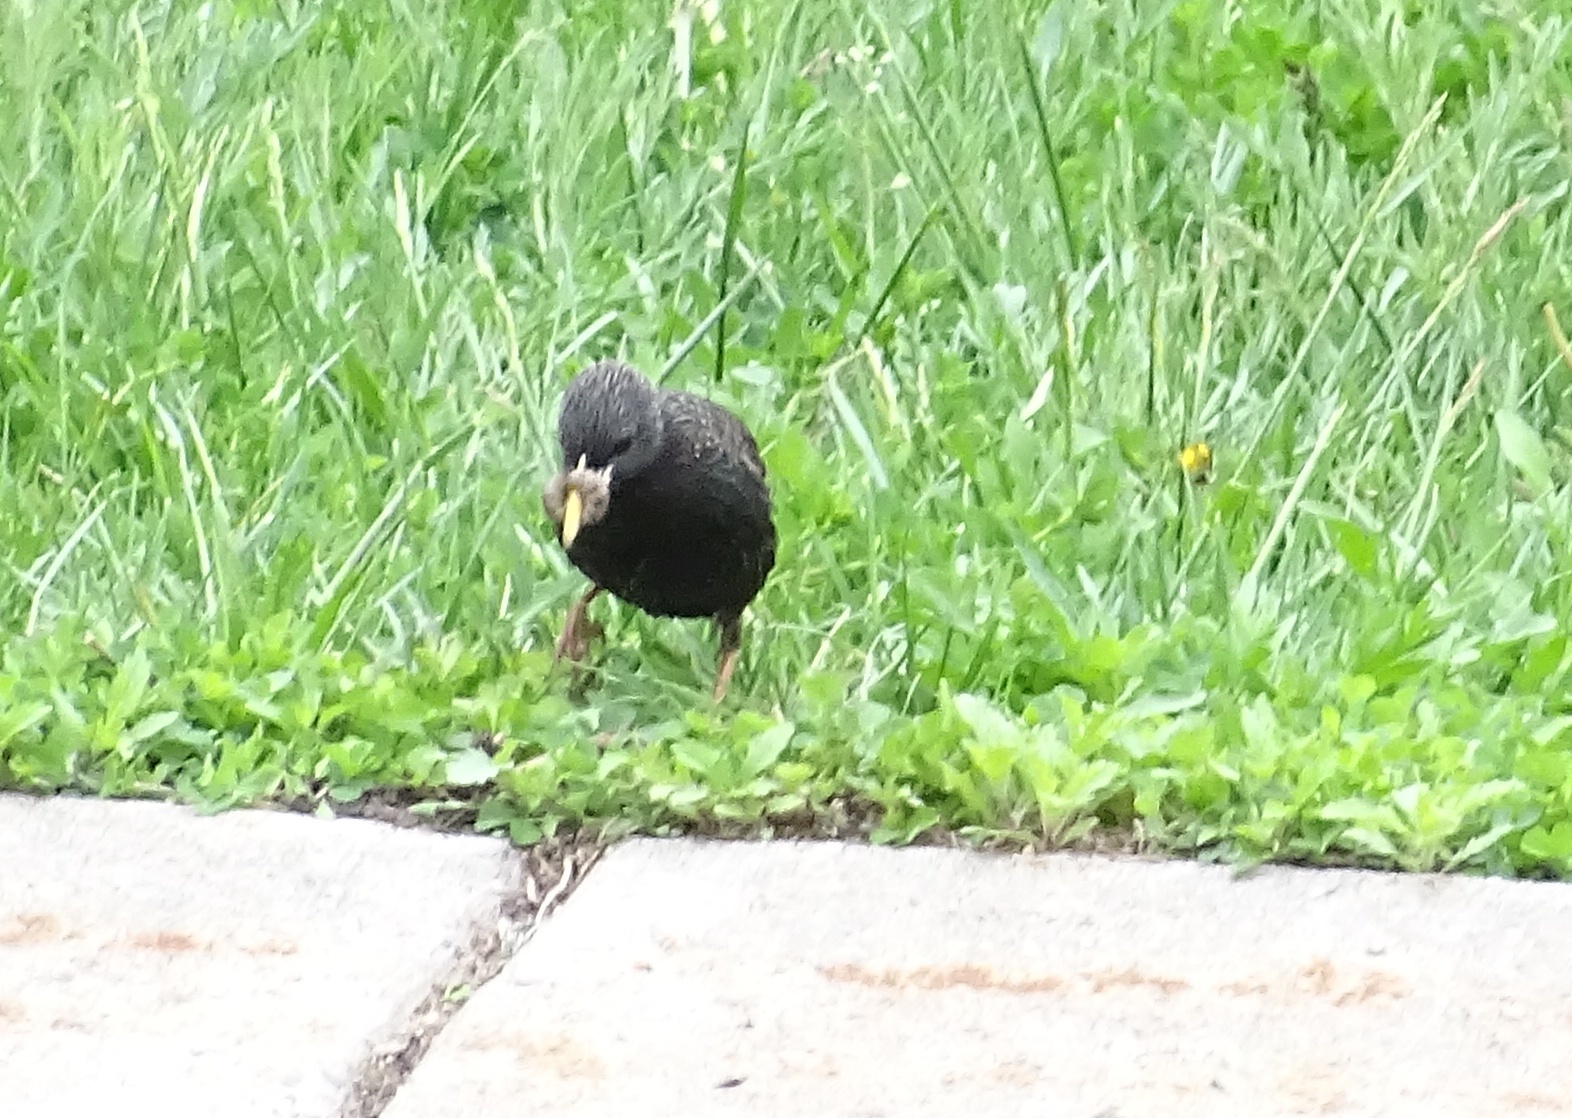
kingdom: Animalia
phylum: Chordata
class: Aves
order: Passeriformes
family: Sturnidae
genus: Sturnus
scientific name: Sturnus vulgaris
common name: Common starling
